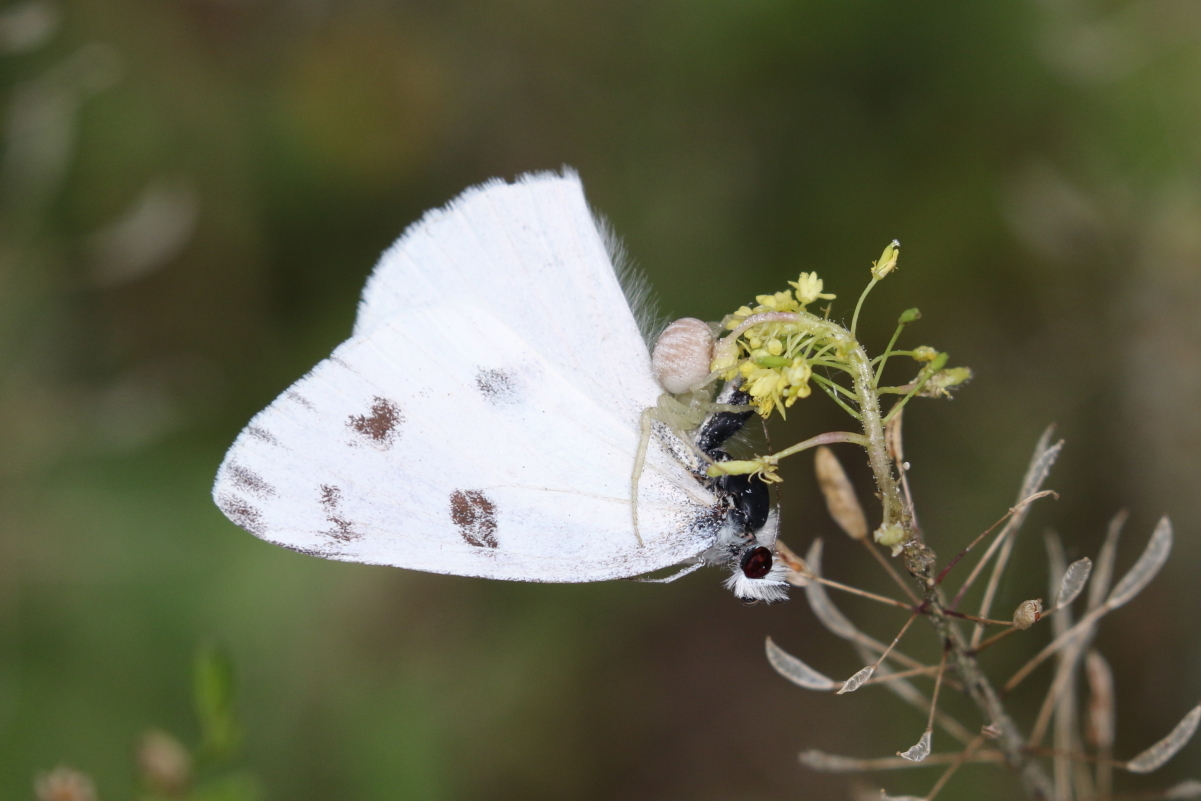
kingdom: Animalia
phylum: Arthropoda
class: Insecta
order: Lepidoptera
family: Pieridae
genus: Pontia
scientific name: Pontia protodice
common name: Checkered white
